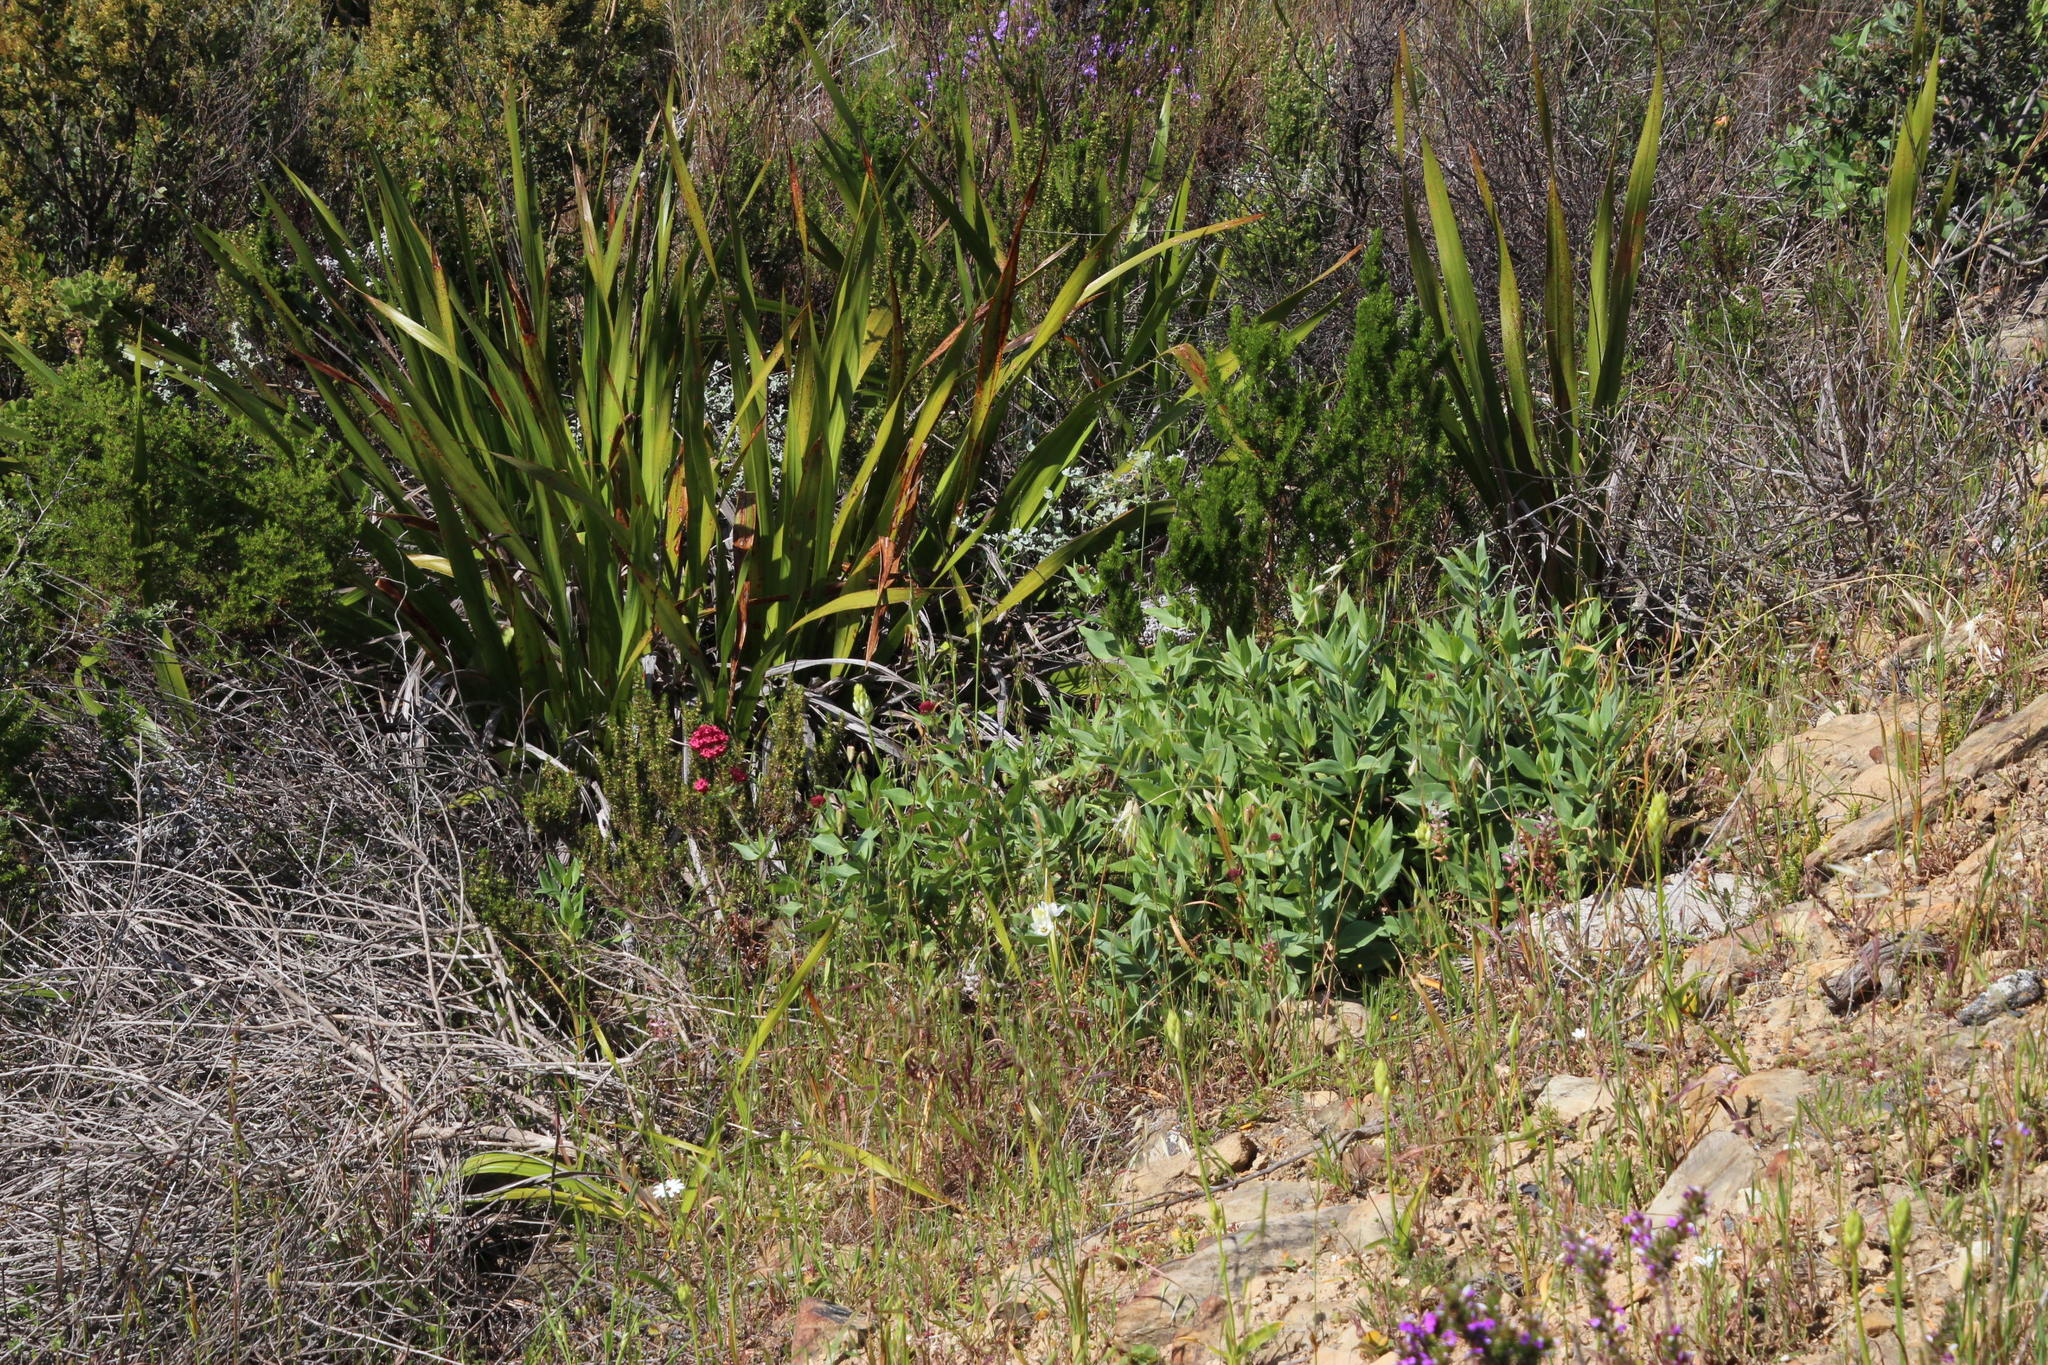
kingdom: Plantae
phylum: Tracheophyta
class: Magnoliopsida
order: Dipsacales
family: Caprifoliaceae
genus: Centranthus
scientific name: Centranthus ruber
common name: Red valerian
